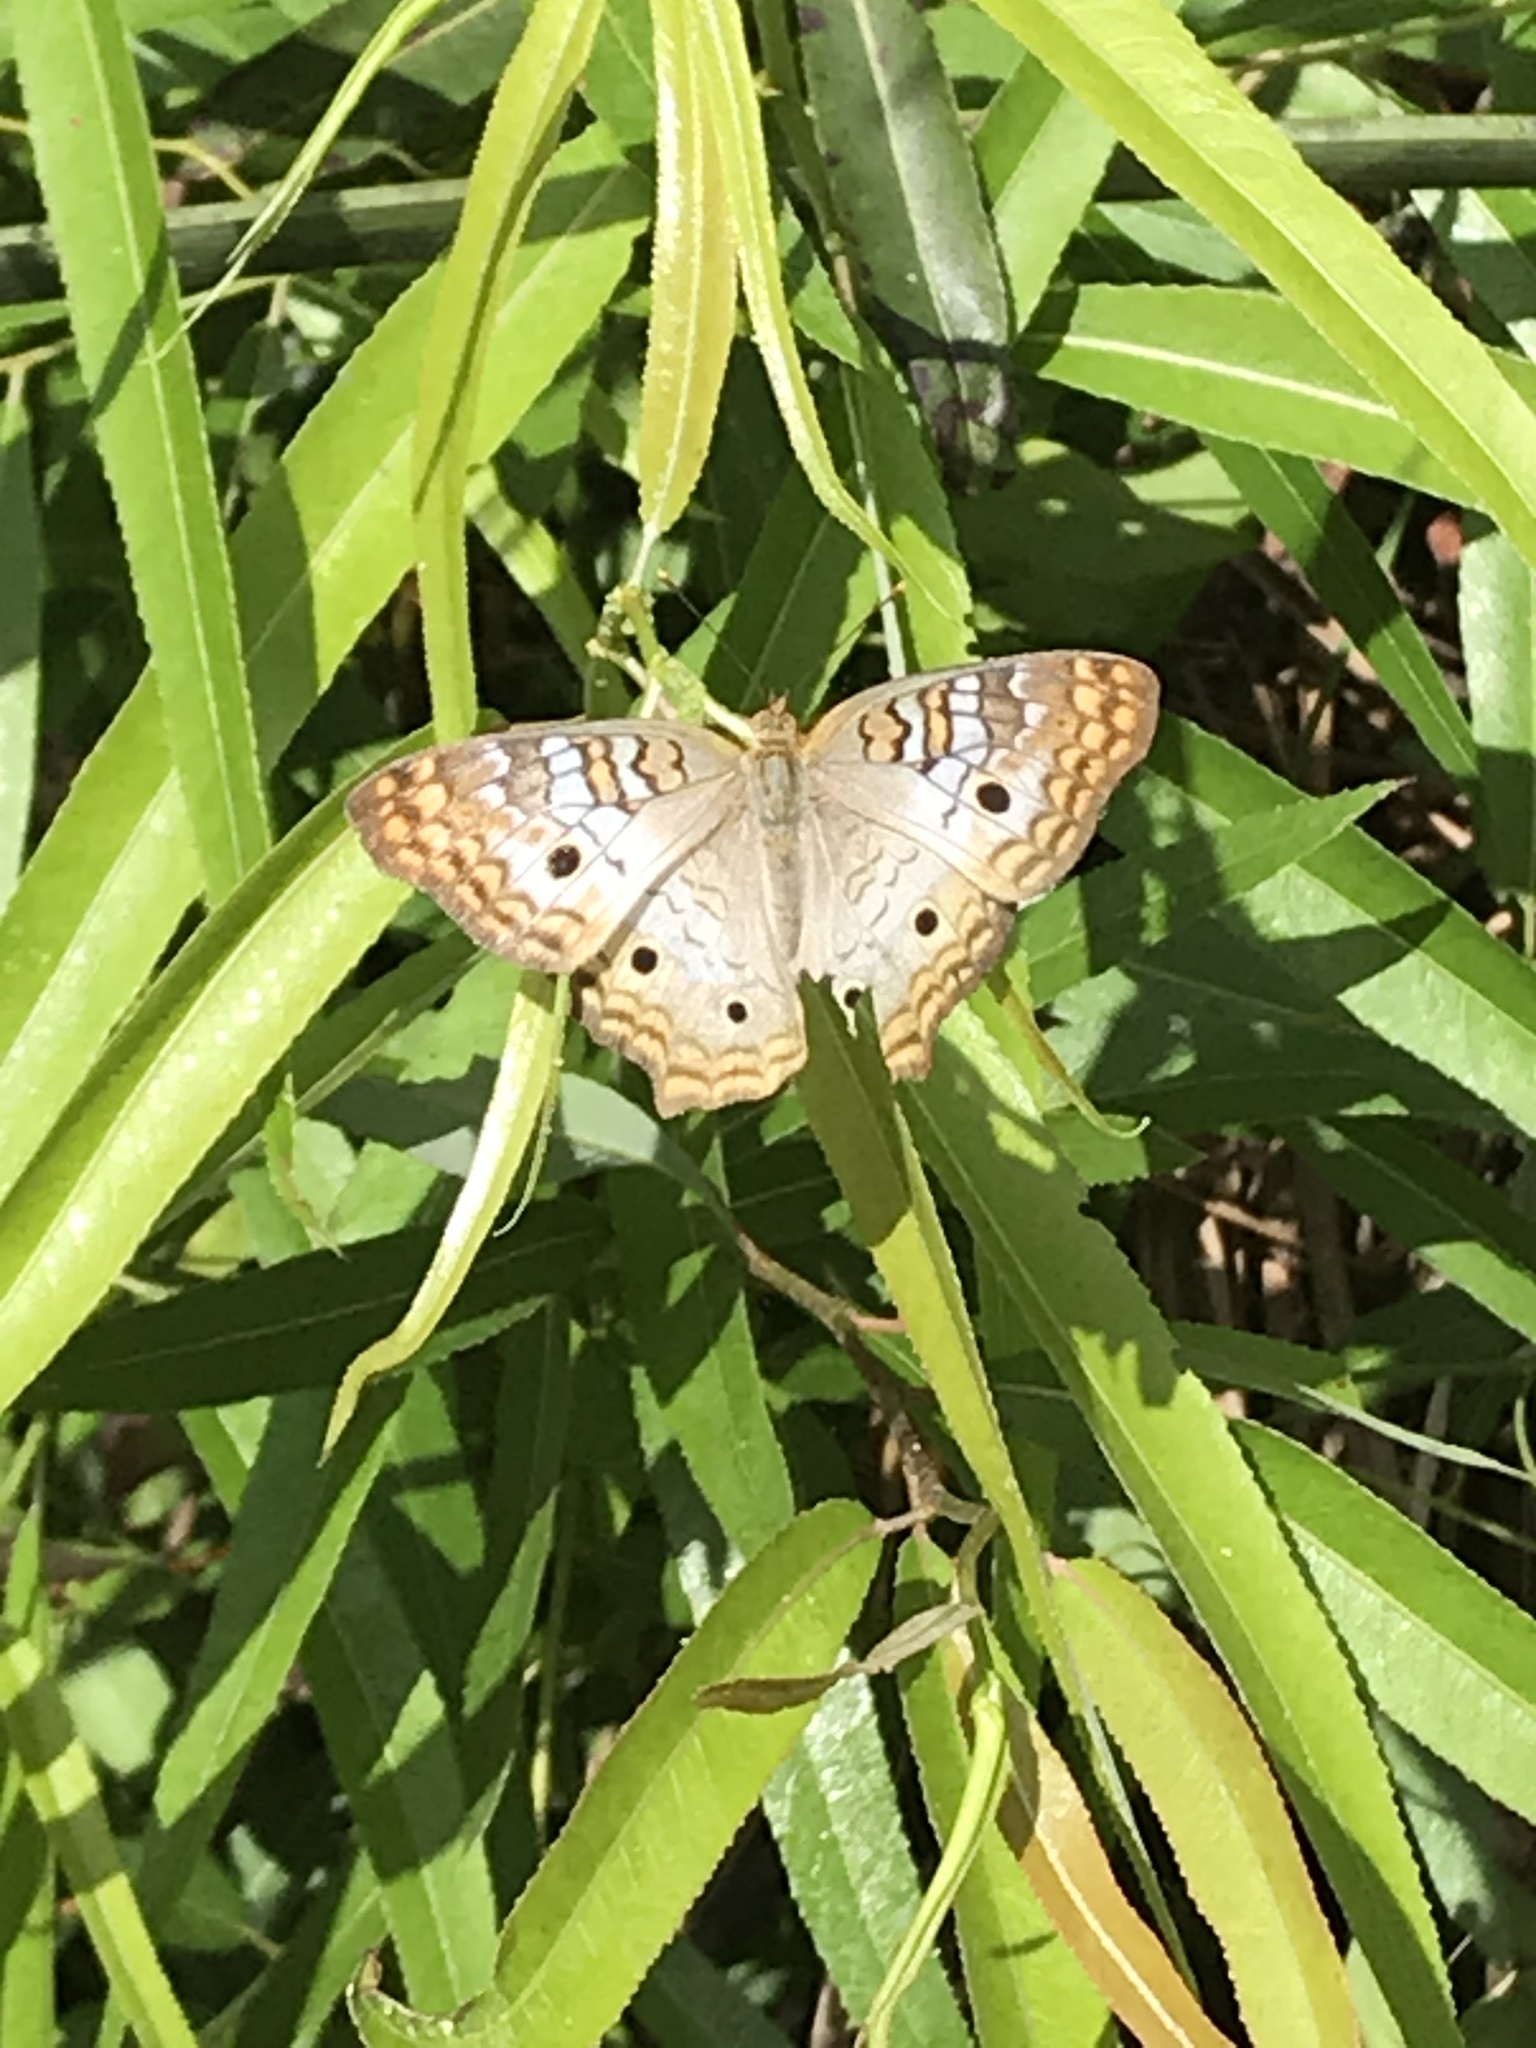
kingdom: Animalia
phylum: Arthropoda
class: Insecta
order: Lepidoptera
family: Nymphalidae
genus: Anartia
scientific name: Anartia jatrophae
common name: White peacock
